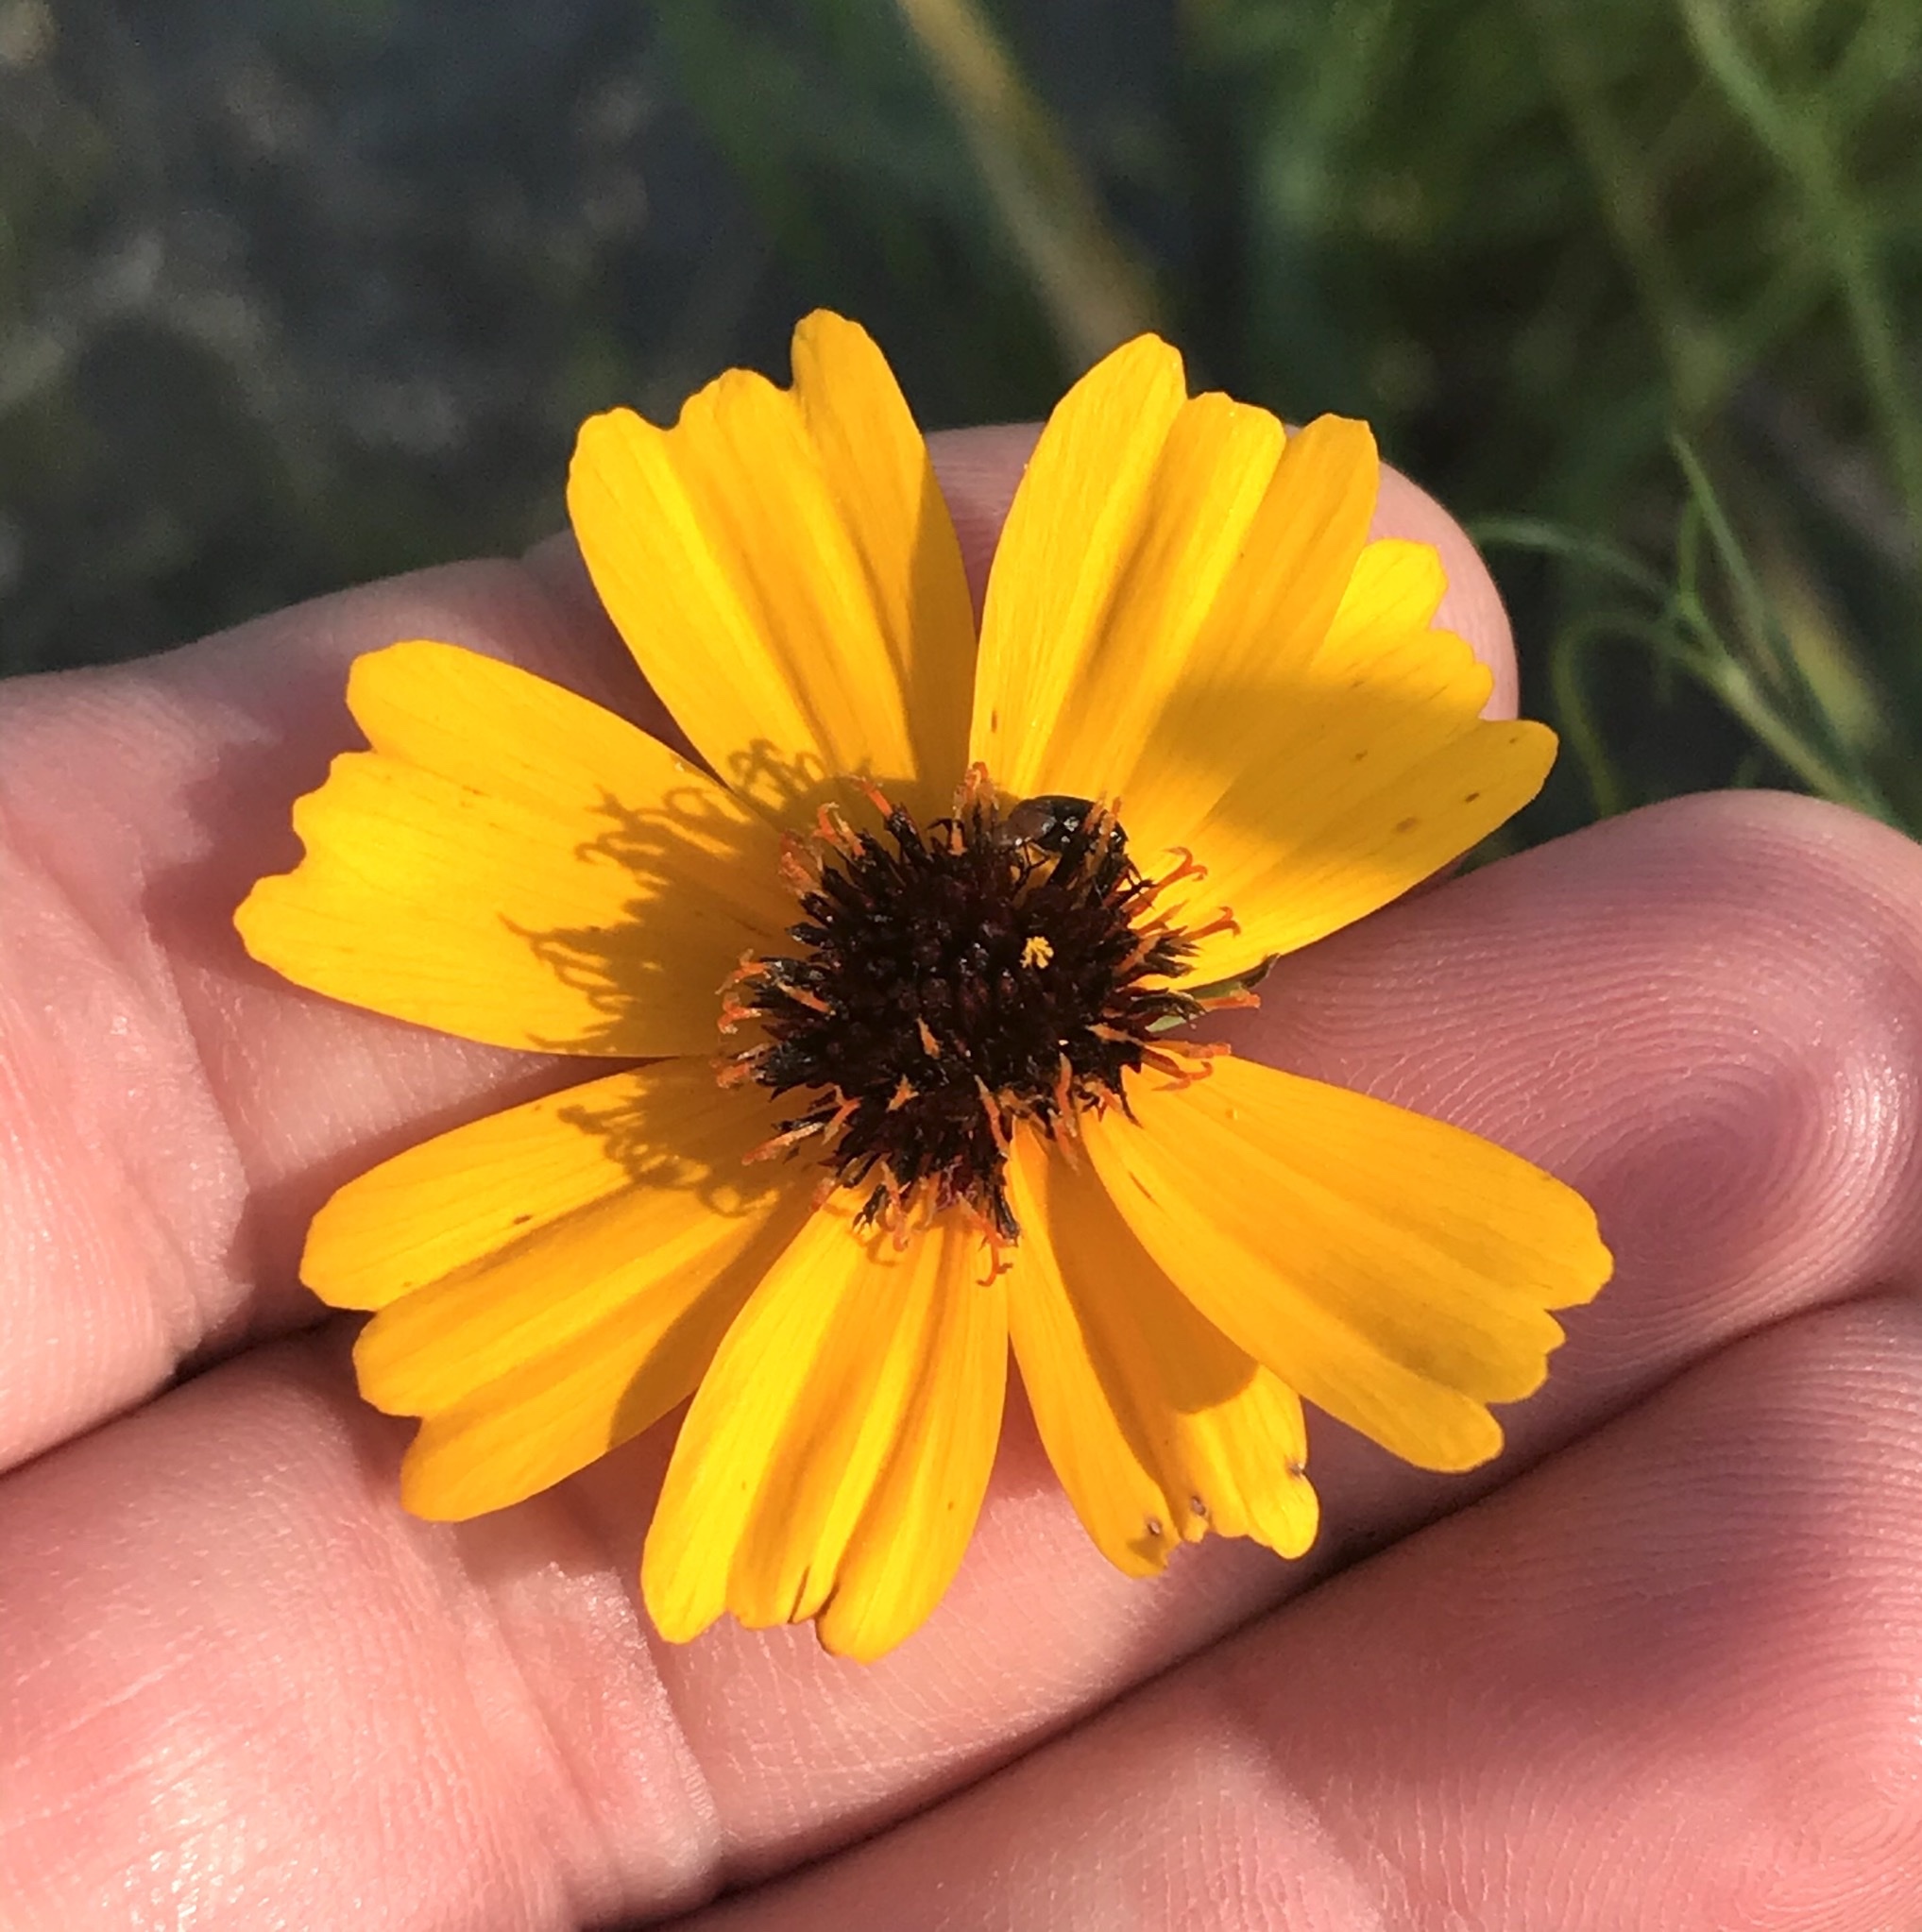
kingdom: Plantae
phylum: Tracheophyta
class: Magnoliopsida
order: Asterales
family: Asteraceae
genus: Thelesperma
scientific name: Thelesperma filifolium
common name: Stiff greenthread
